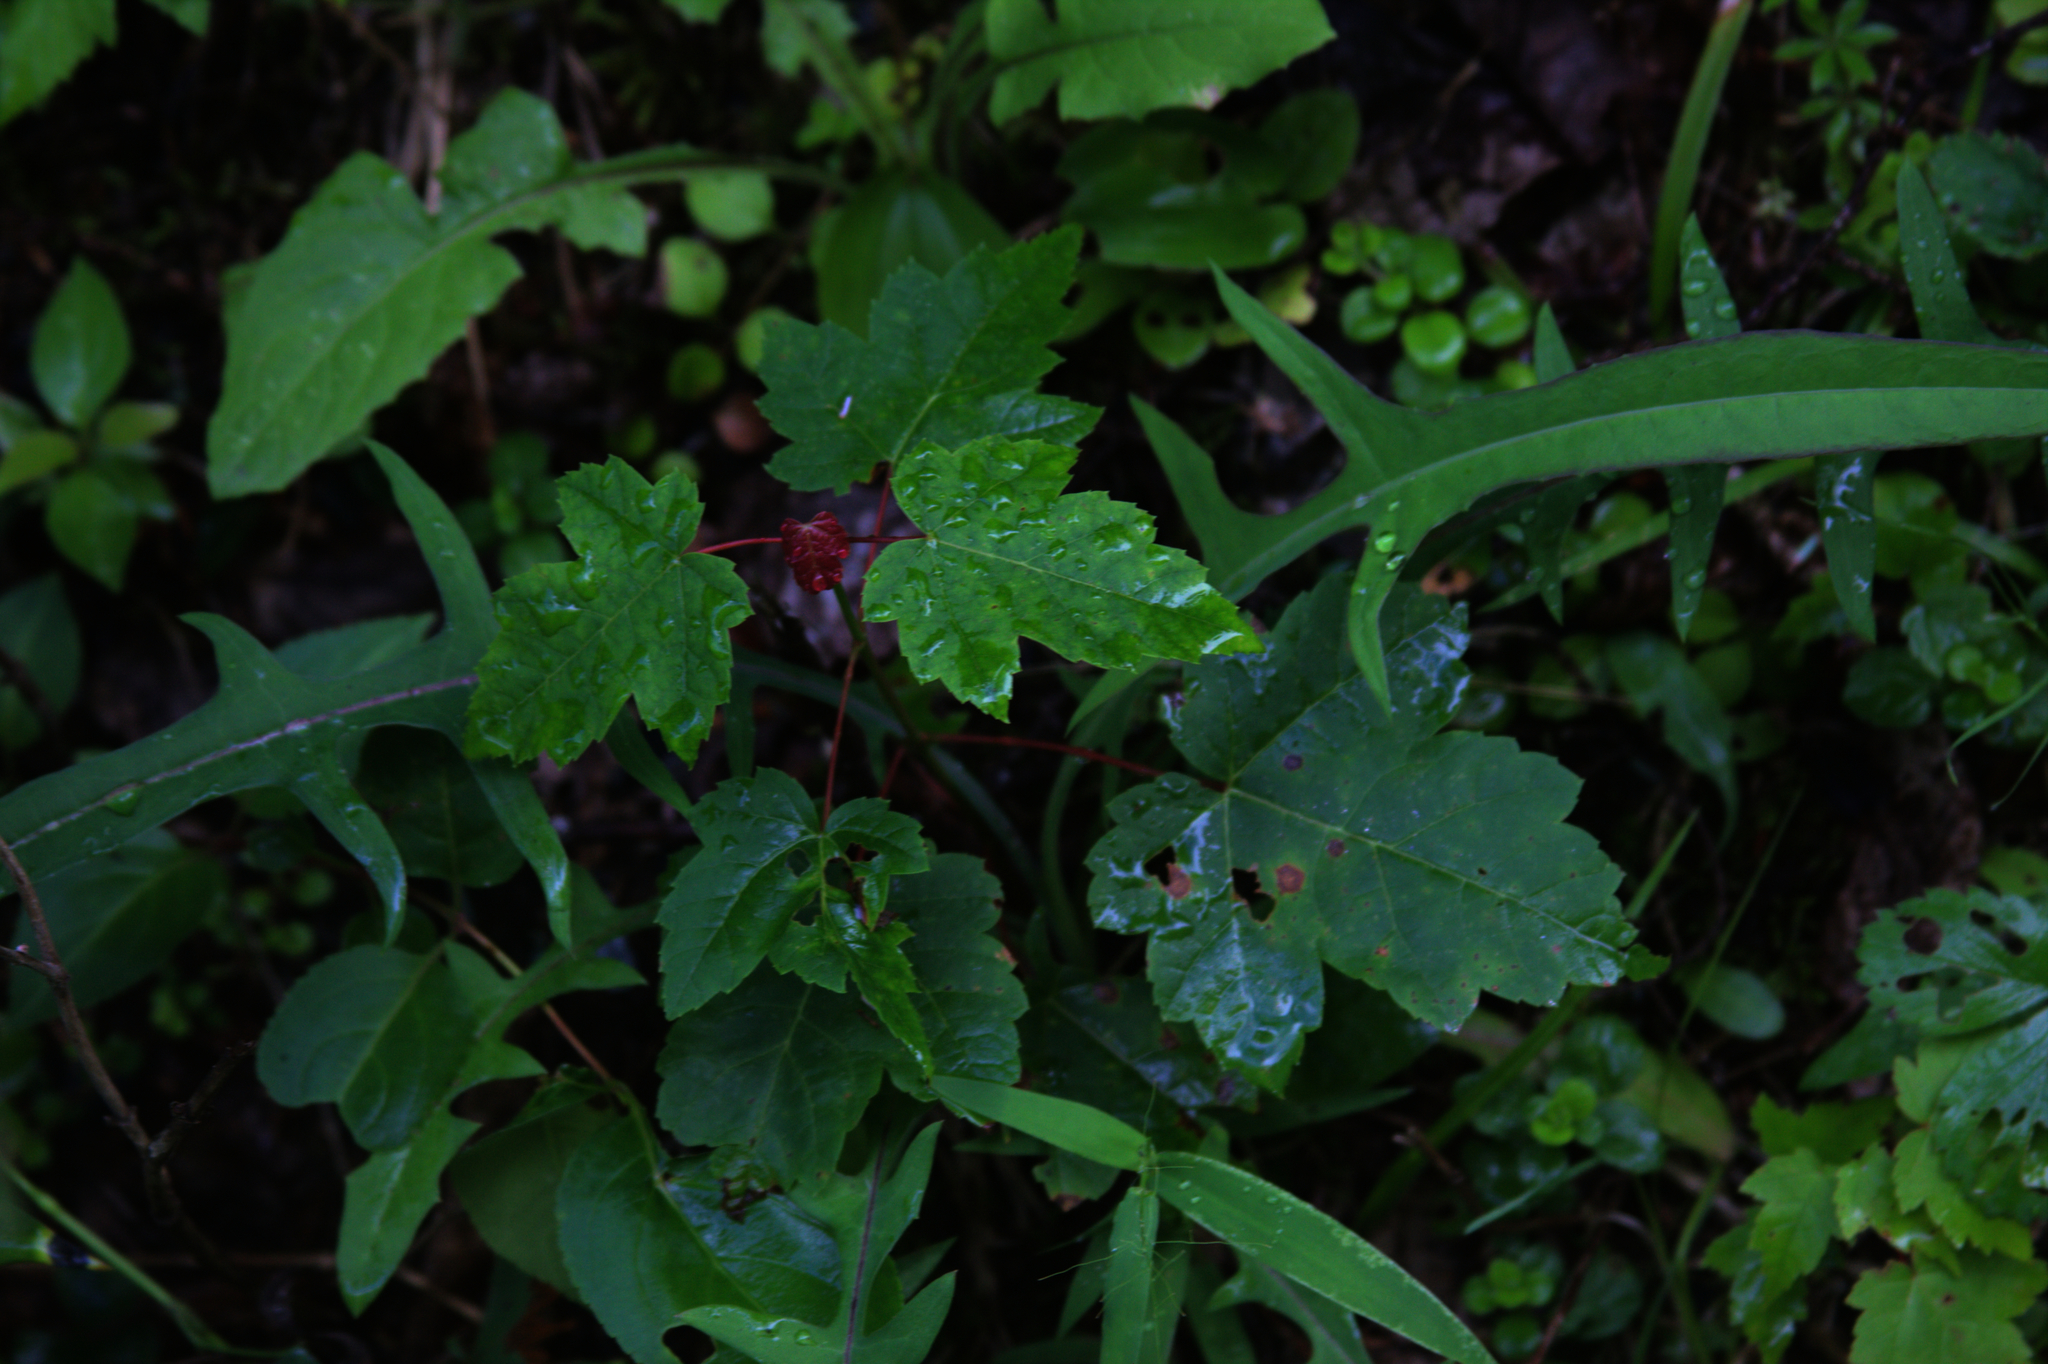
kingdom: Plantae
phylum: Tracheophyta
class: Magnoliopsida
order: Sapindales
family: Sapindaceae
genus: Acer
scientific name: Acer rubrum
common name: Red maple
